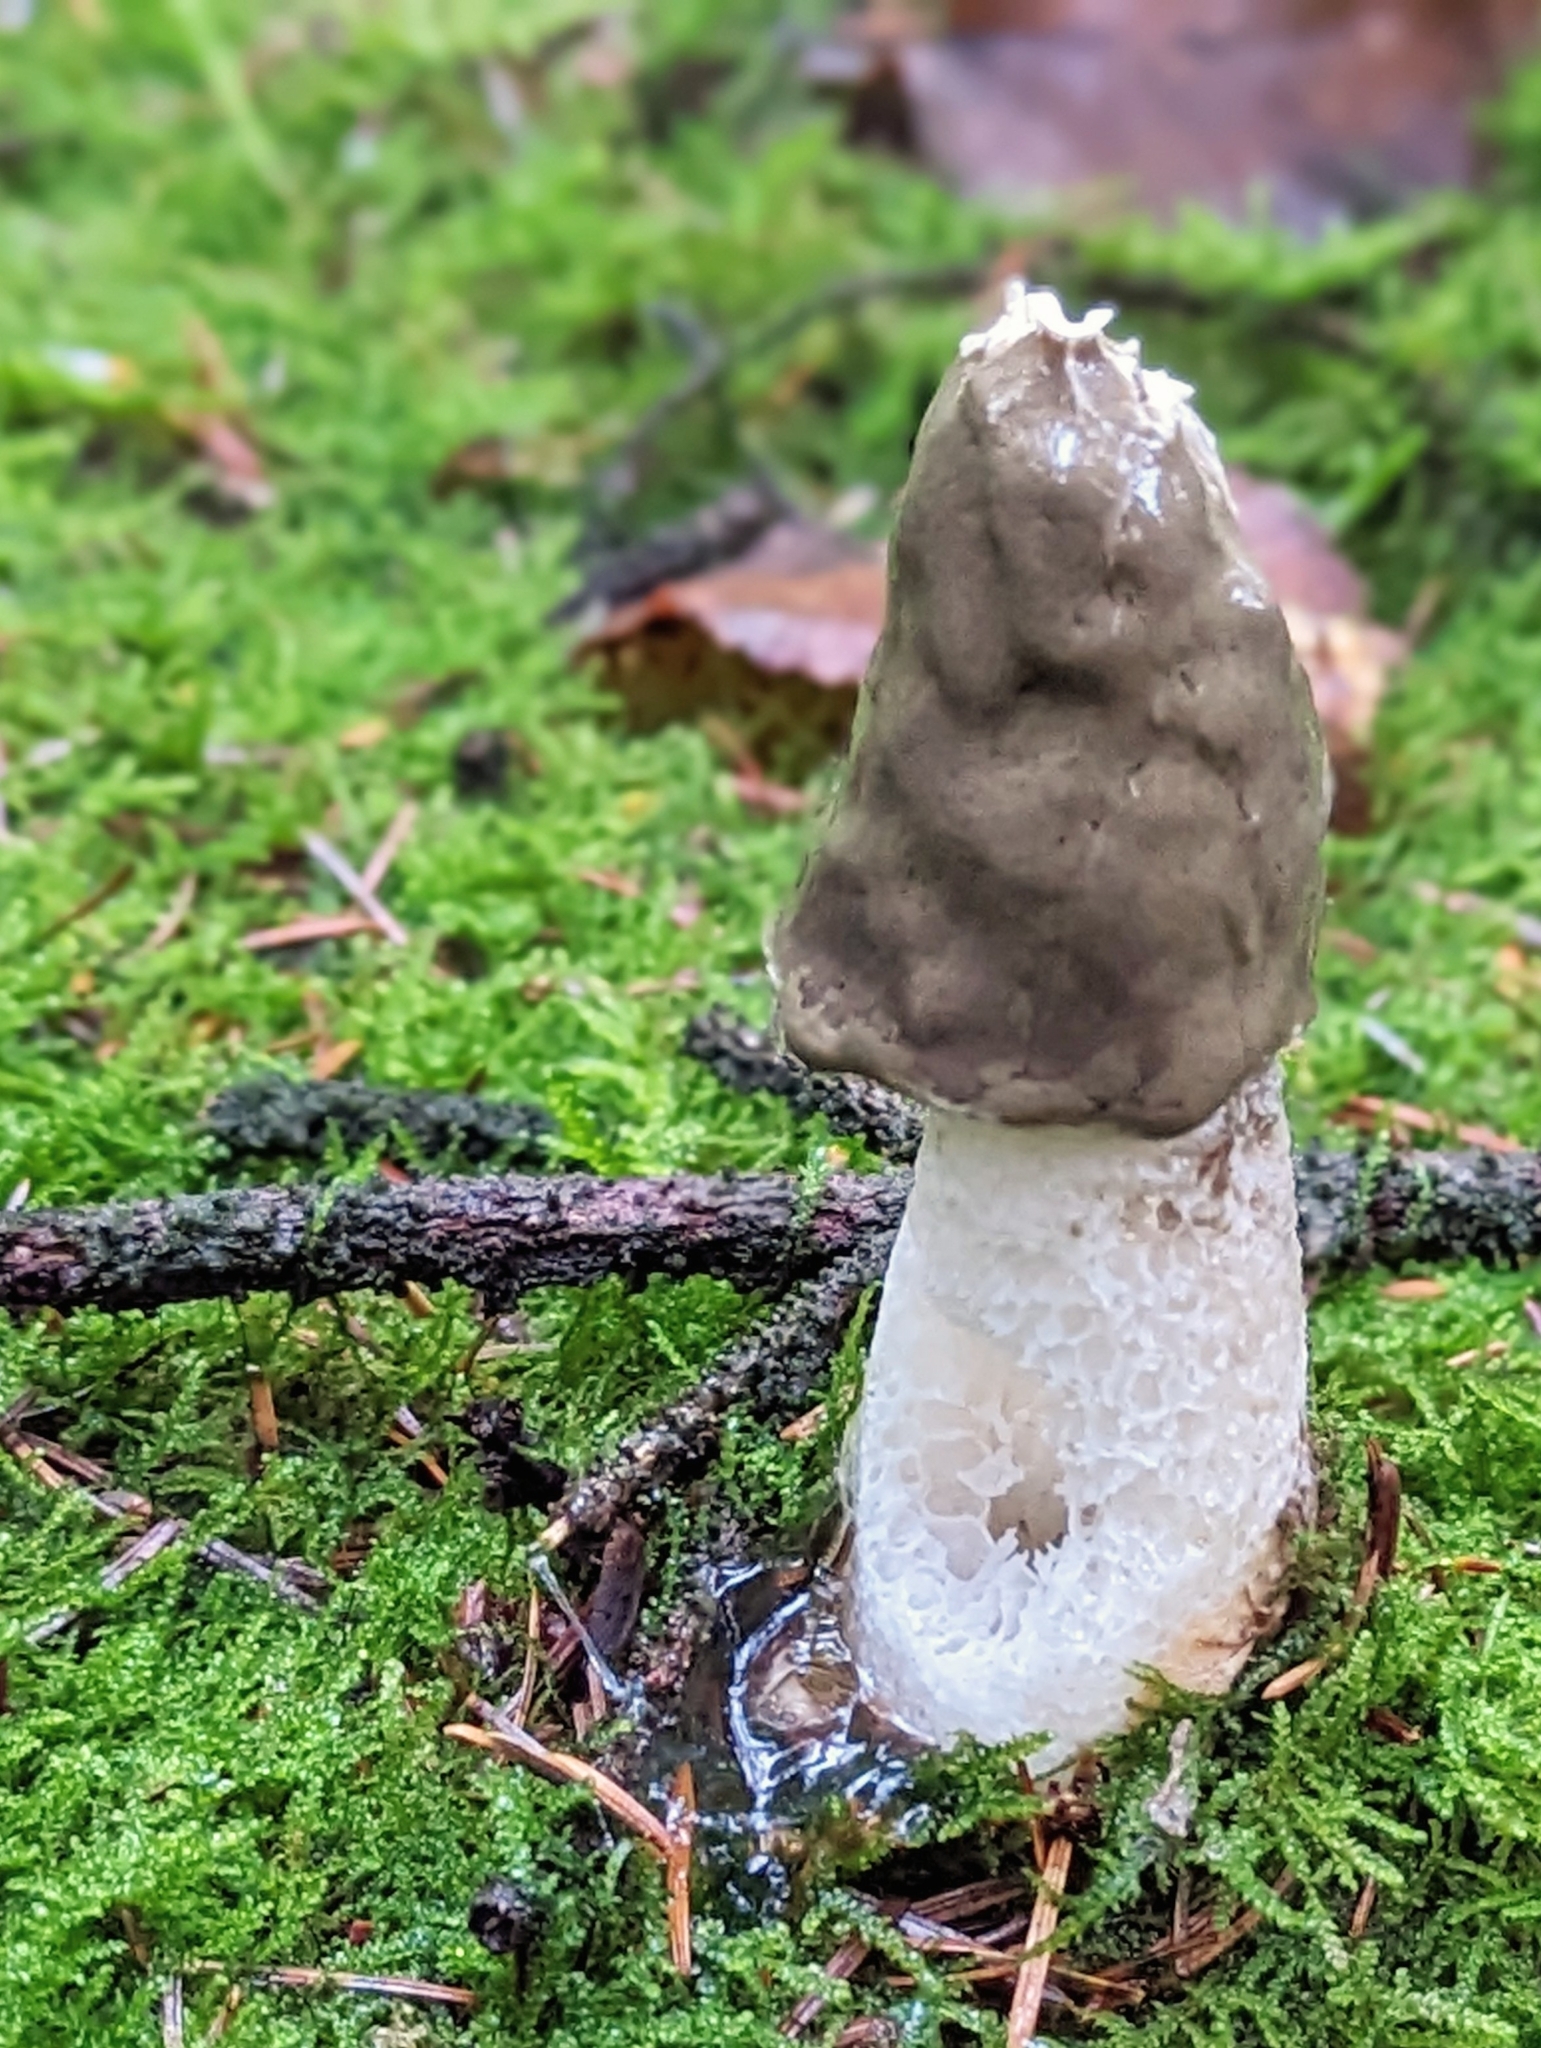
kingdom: Fungi
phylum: Basidiomycota
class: Agaricomycetes
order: Phallales
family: Phallaceae
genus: Phallus
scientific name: Phallus impudicus
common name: Common stinkhorn
